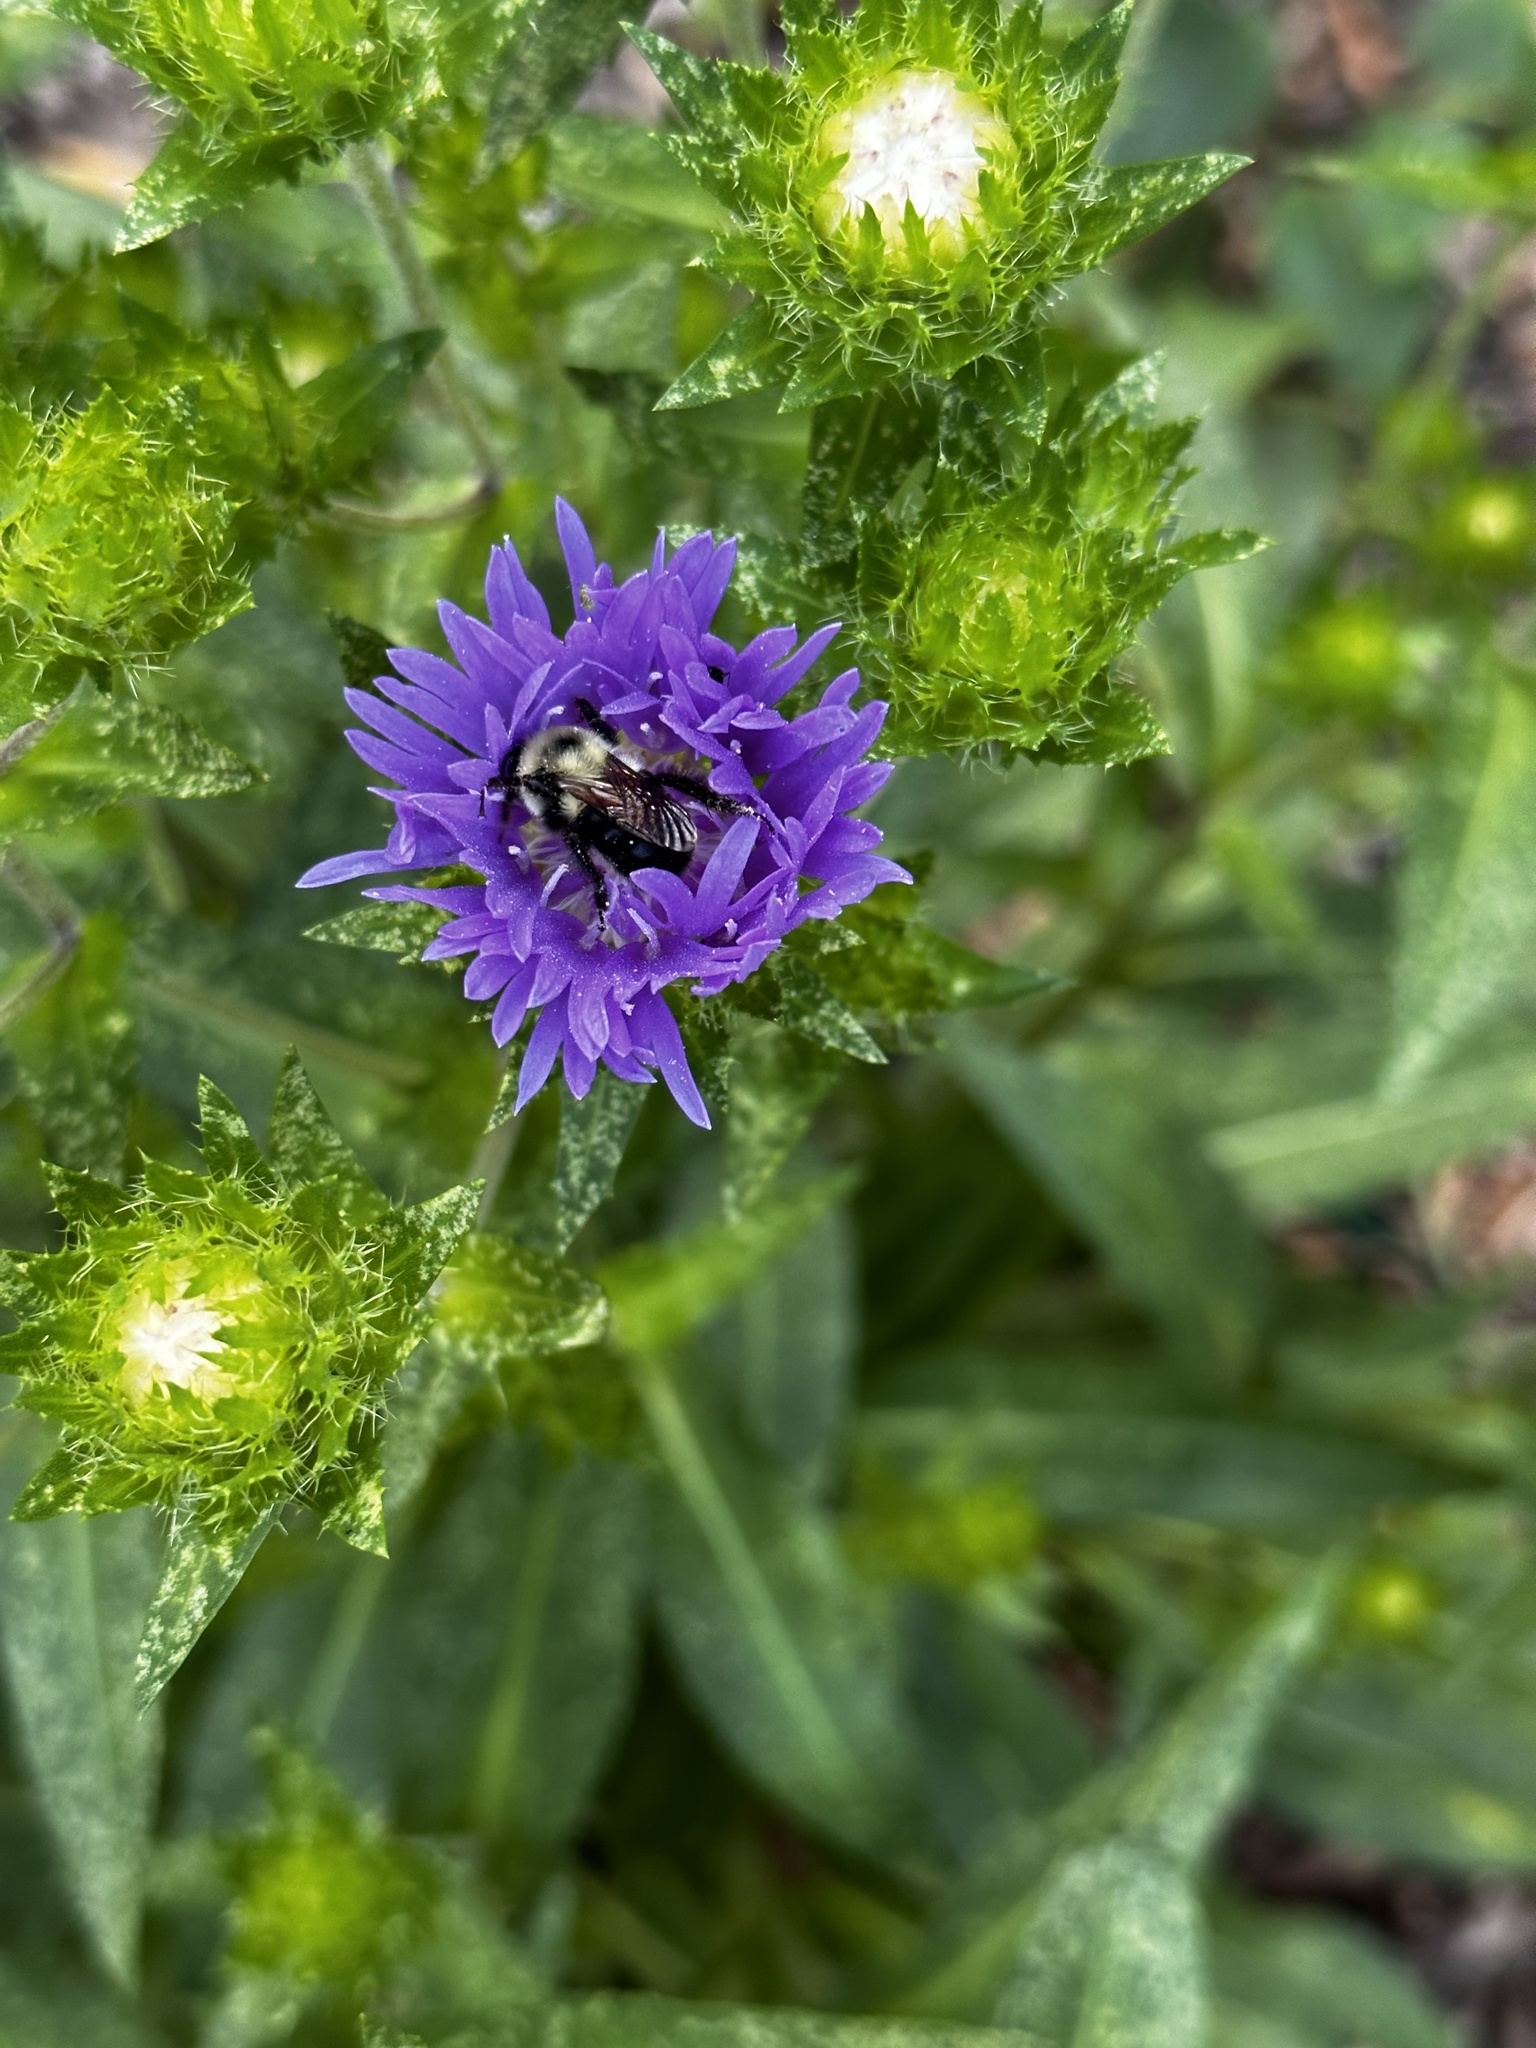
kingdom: Animalia
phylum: Arthropoda
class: Insecta
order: Hymenoptera
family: Apidae
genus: Bombus
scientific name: Bombus bimaculatus
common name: Two-spotted bumble bee
